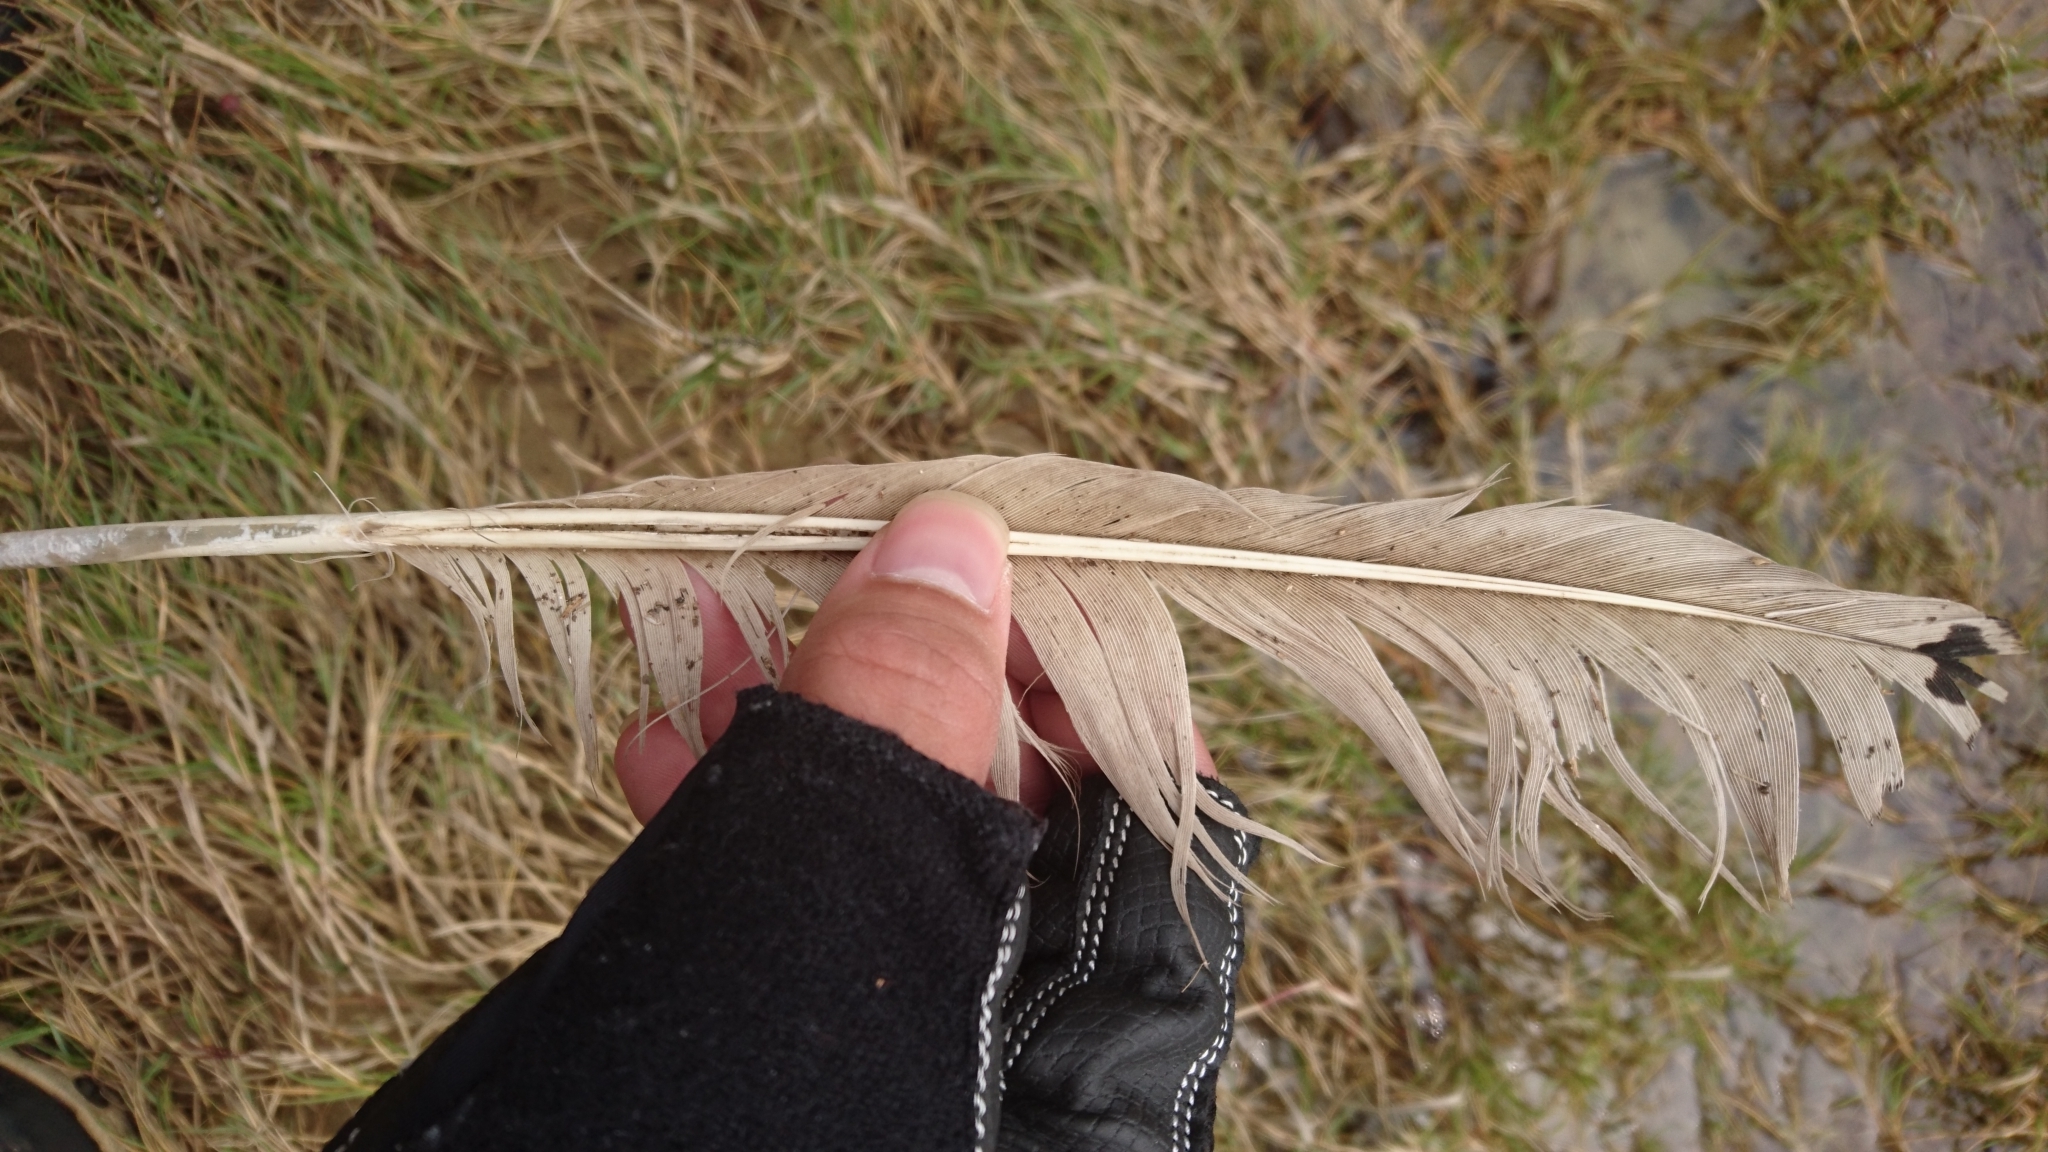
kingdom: Animalia
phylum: Chordata
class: Aves
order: Pelecaniformes
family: Threskiornithidae
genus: Threskiornis
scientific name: Threskiornis molucca
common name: Australian white ibis
